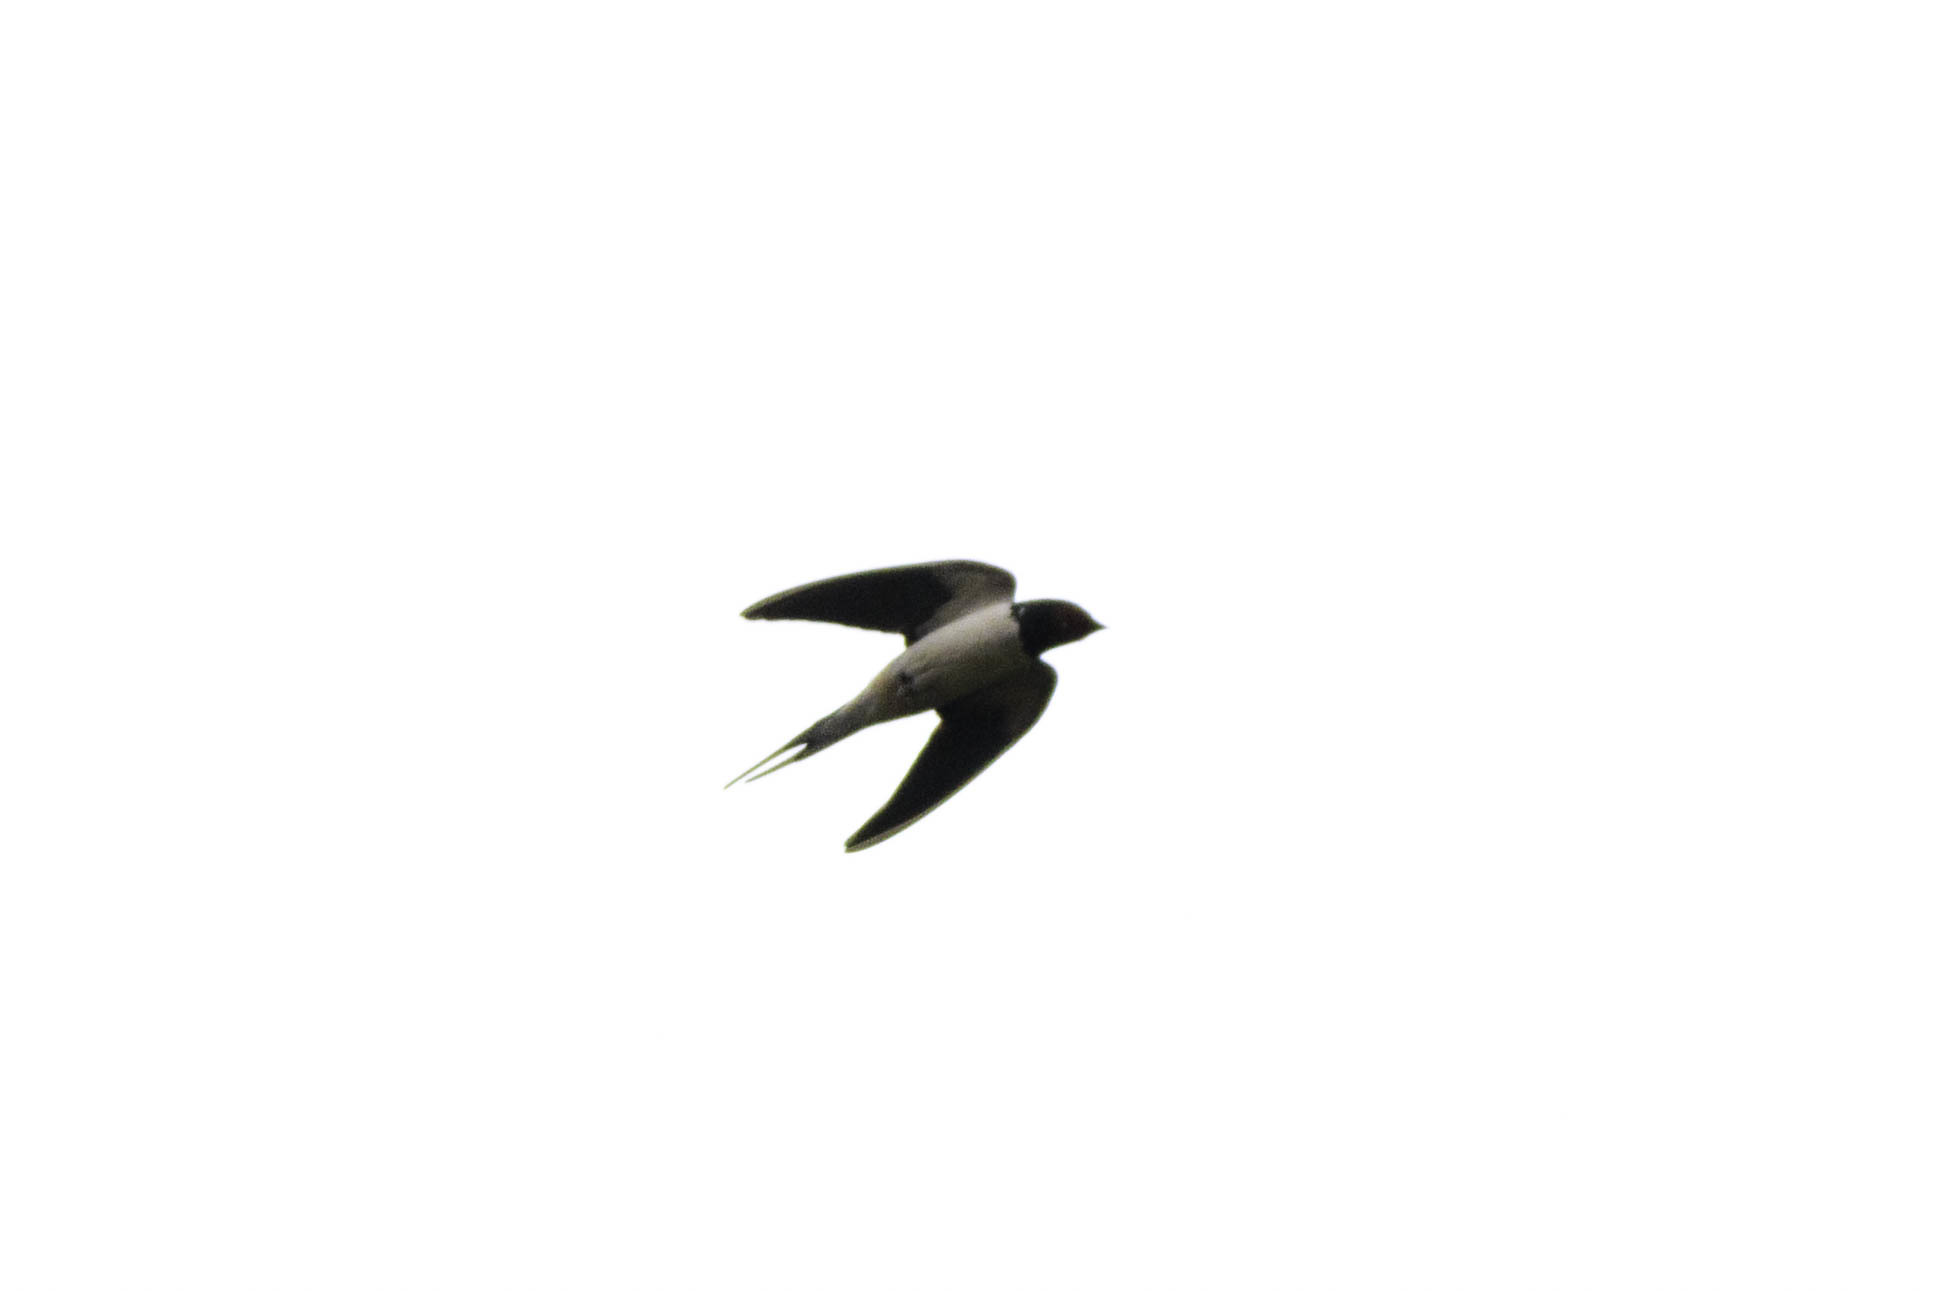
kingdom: Animalia
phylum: Chordata
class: Aves
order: Passeriformes
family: Hirundinidae
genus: Hirundo
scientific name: Hirundo rustica
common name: Barn swallow
